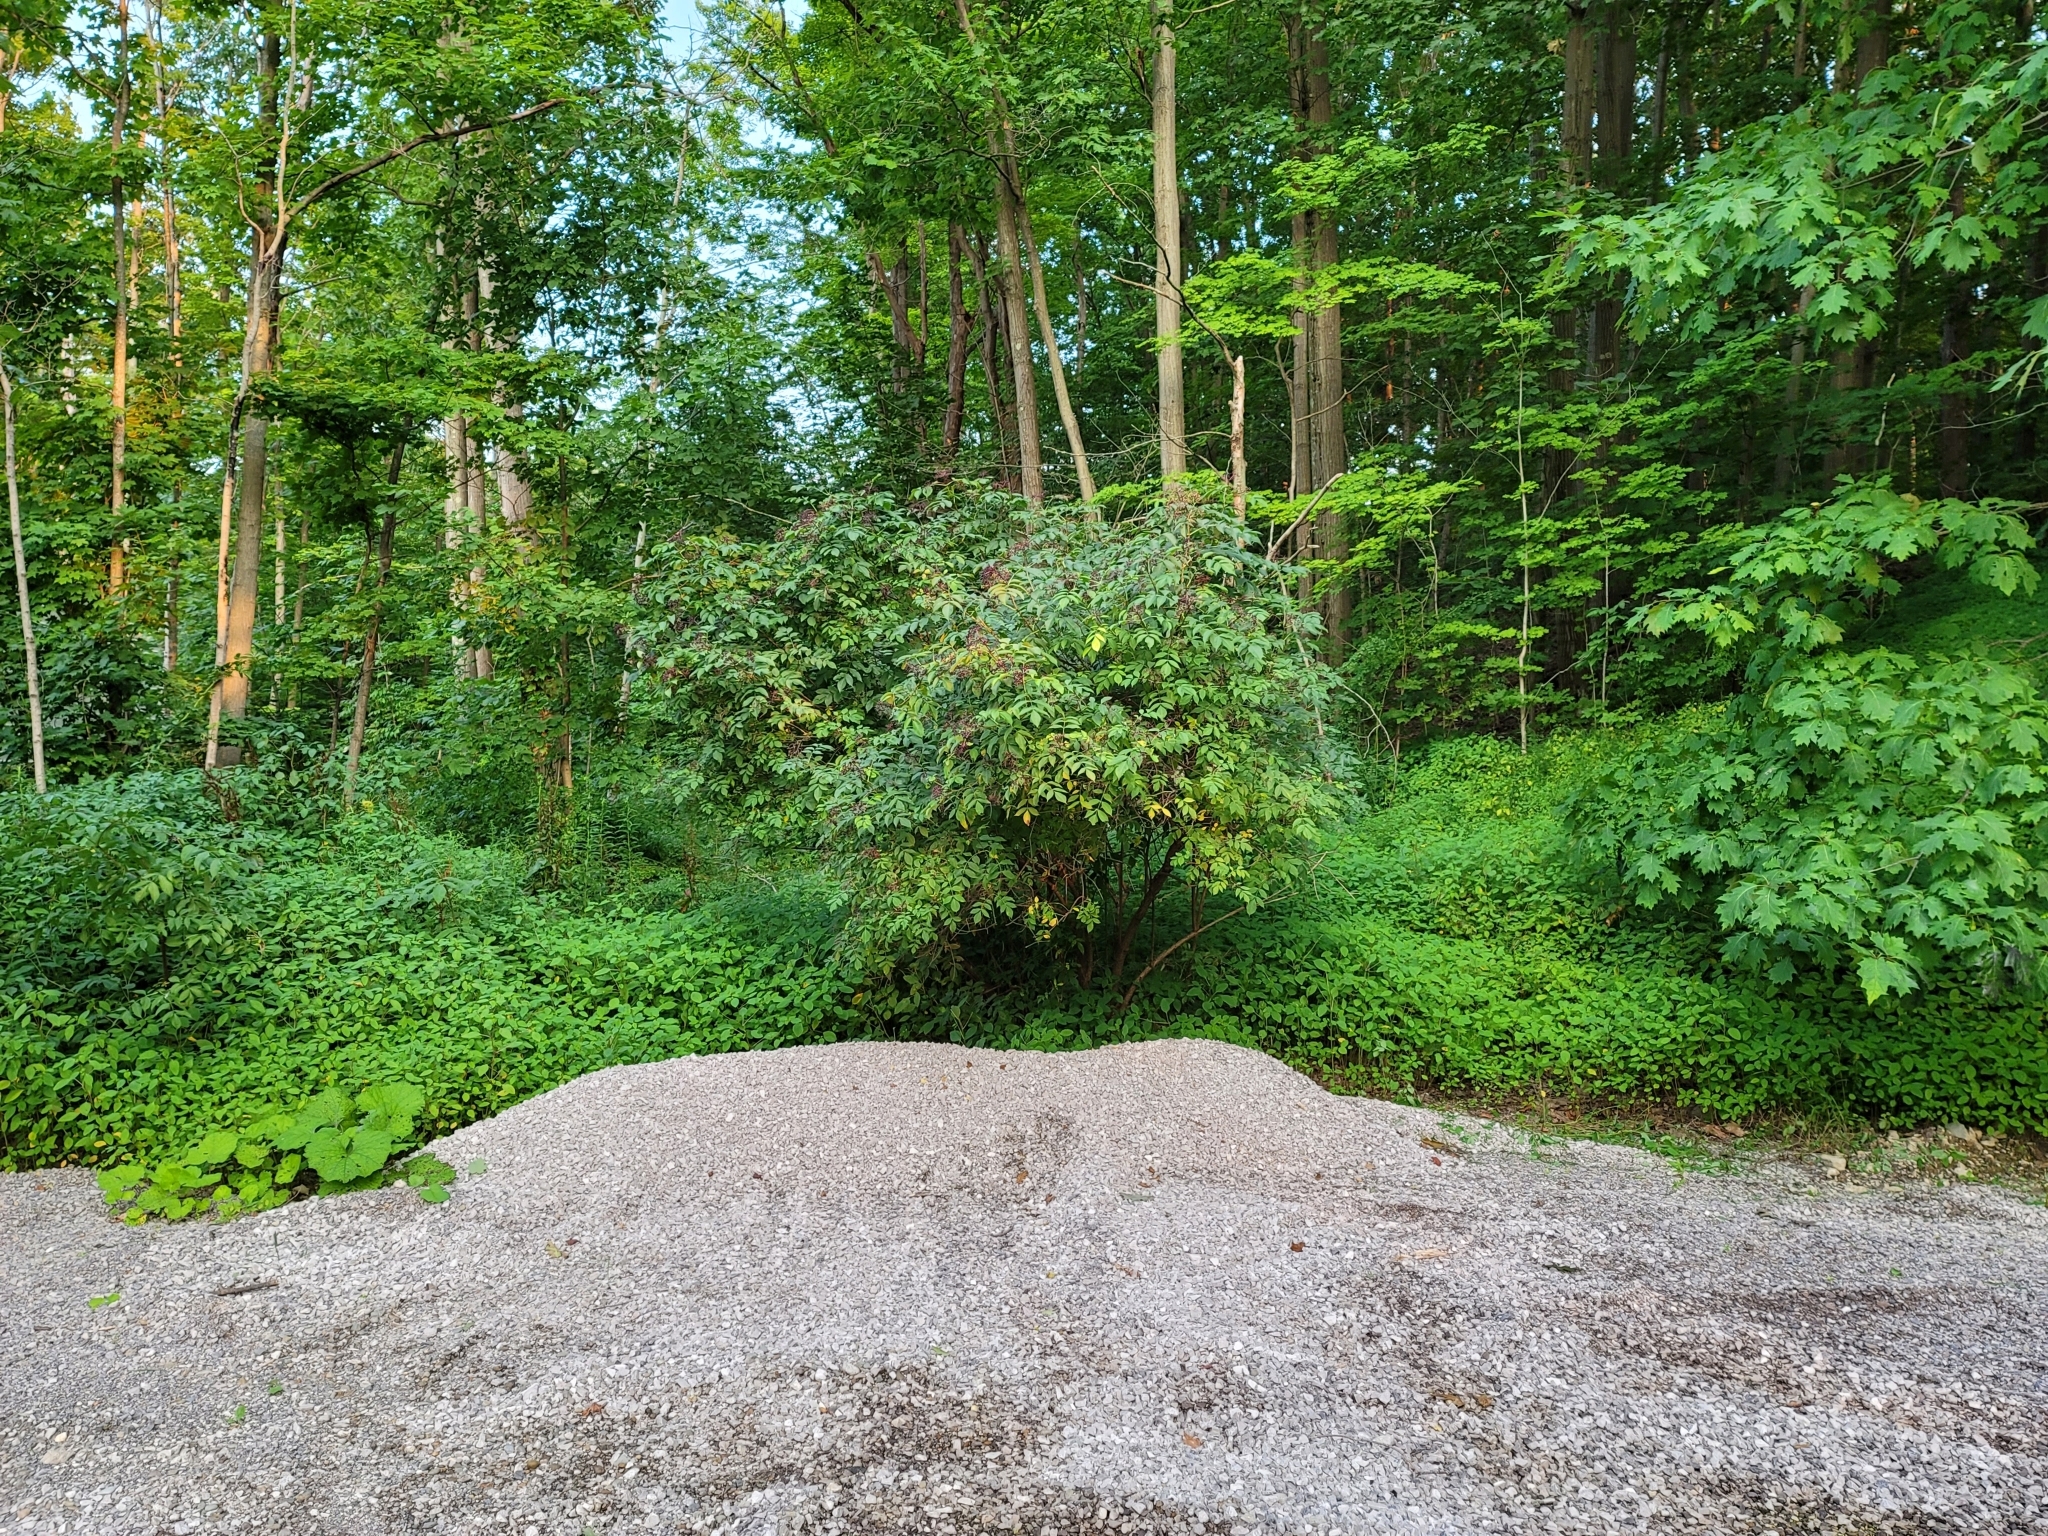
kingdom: Plantae
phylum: Tracheophyta
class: Magnoliopsida
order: Dipsacales
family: Viburnaceae
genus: Sambucus
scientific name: Sambucus canadensis
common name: American elder
